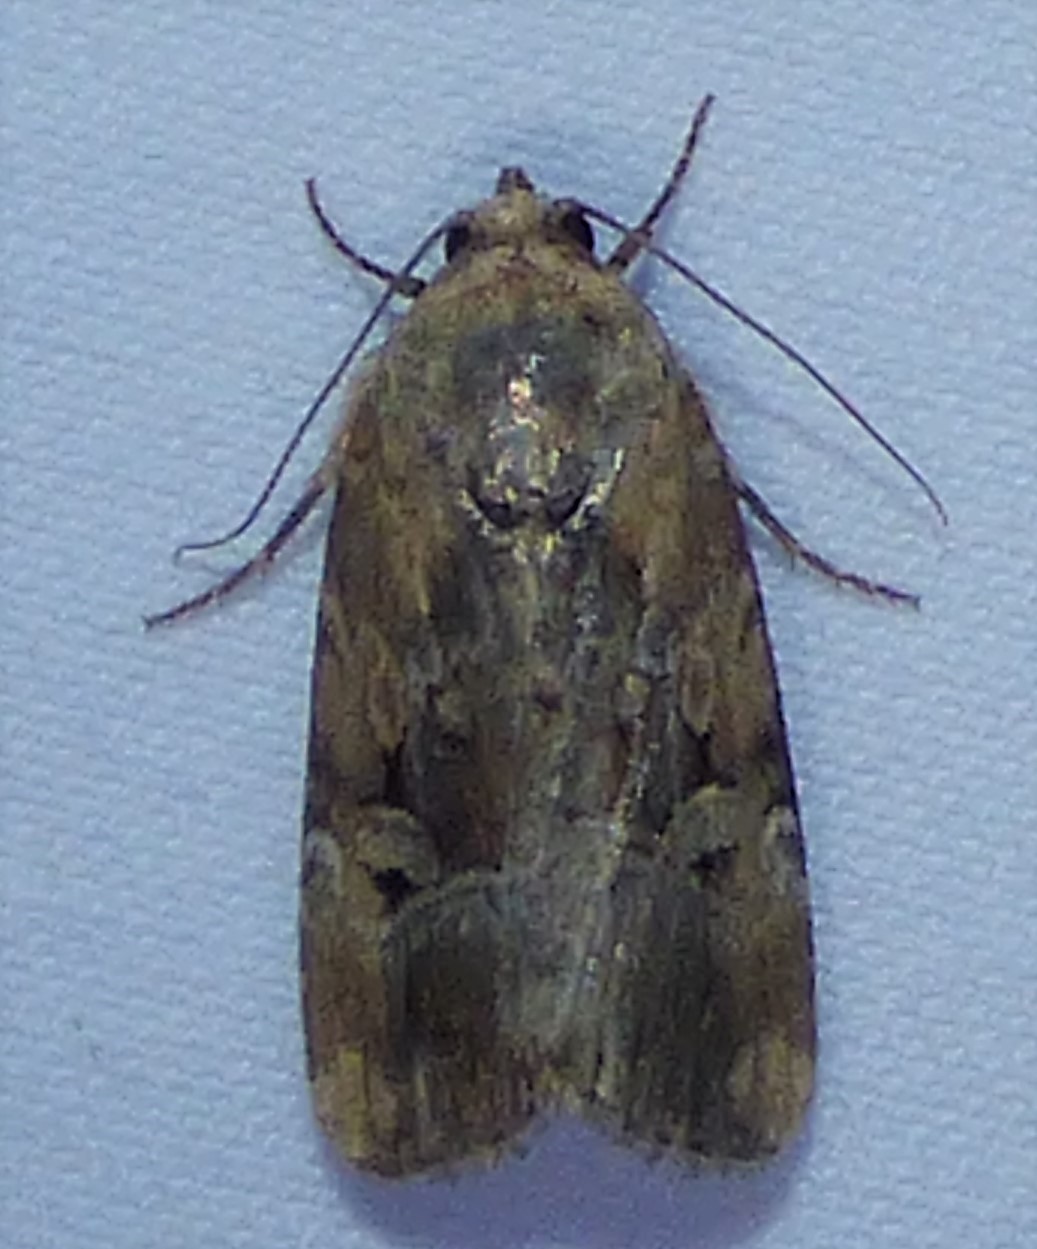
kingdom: Animalia
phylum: Arthropoda
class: Insecta
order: Lepidoptera
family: Noctuidae
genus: Elaphria
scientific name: Elaphria chalcedonia
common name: Chalcedony midget
